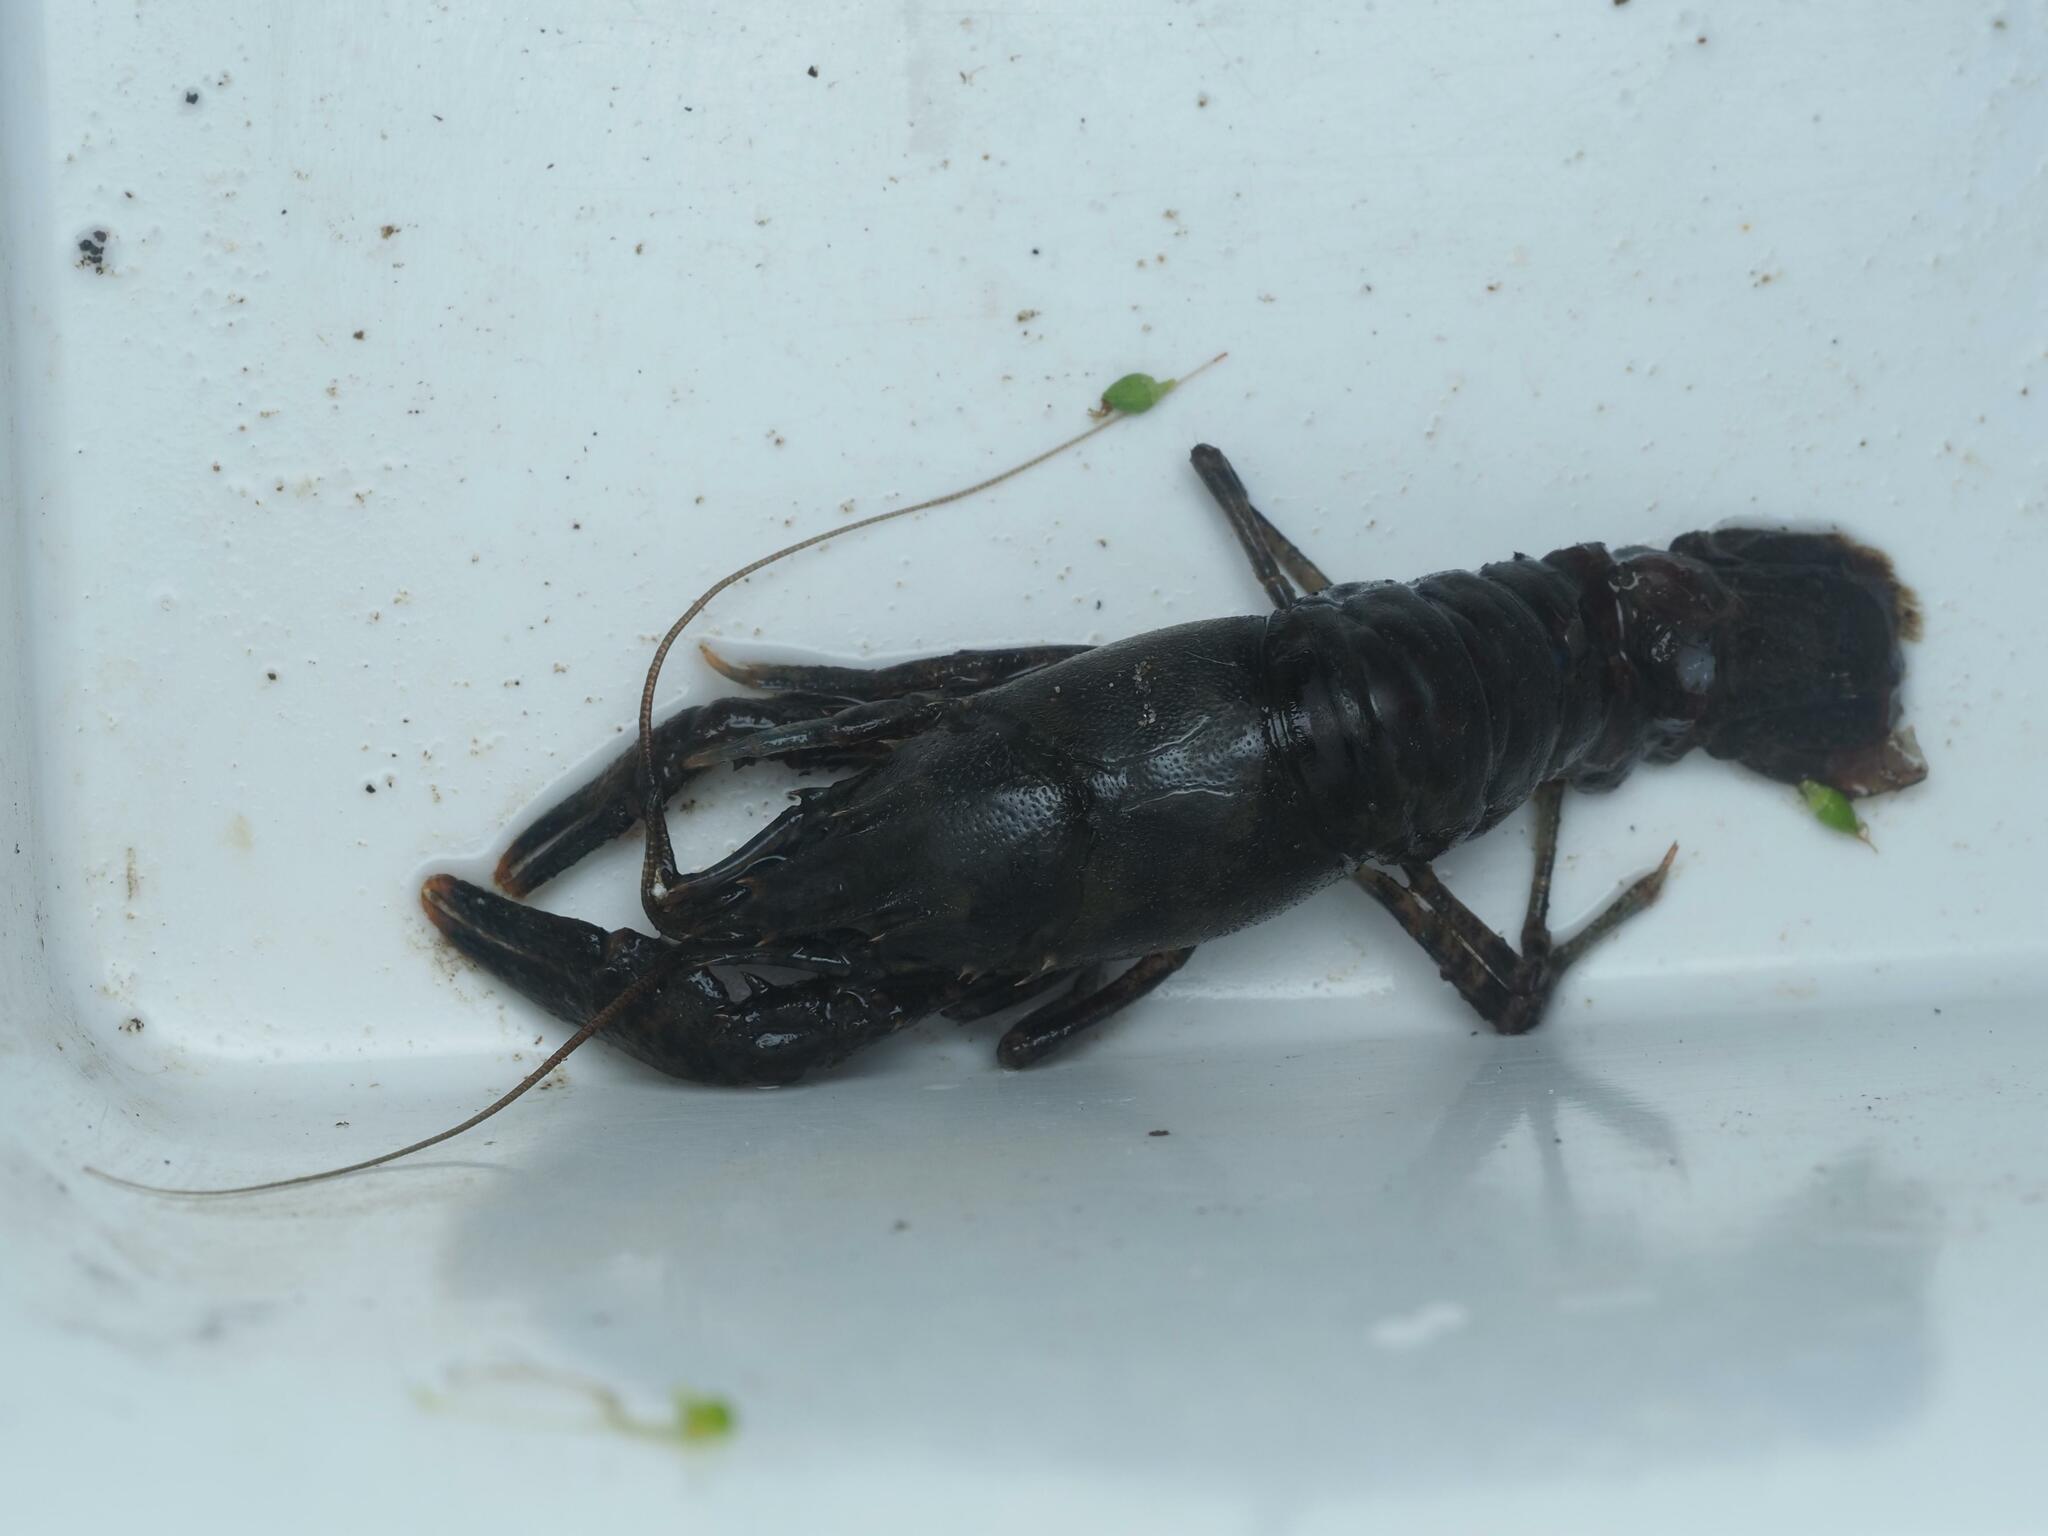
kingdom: Animalia
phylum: Arthropoda
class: Malacostraca
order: Decapoda
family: Cambaridae
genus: Faxonius
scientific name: Faxonius limosus
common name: American crayfish
